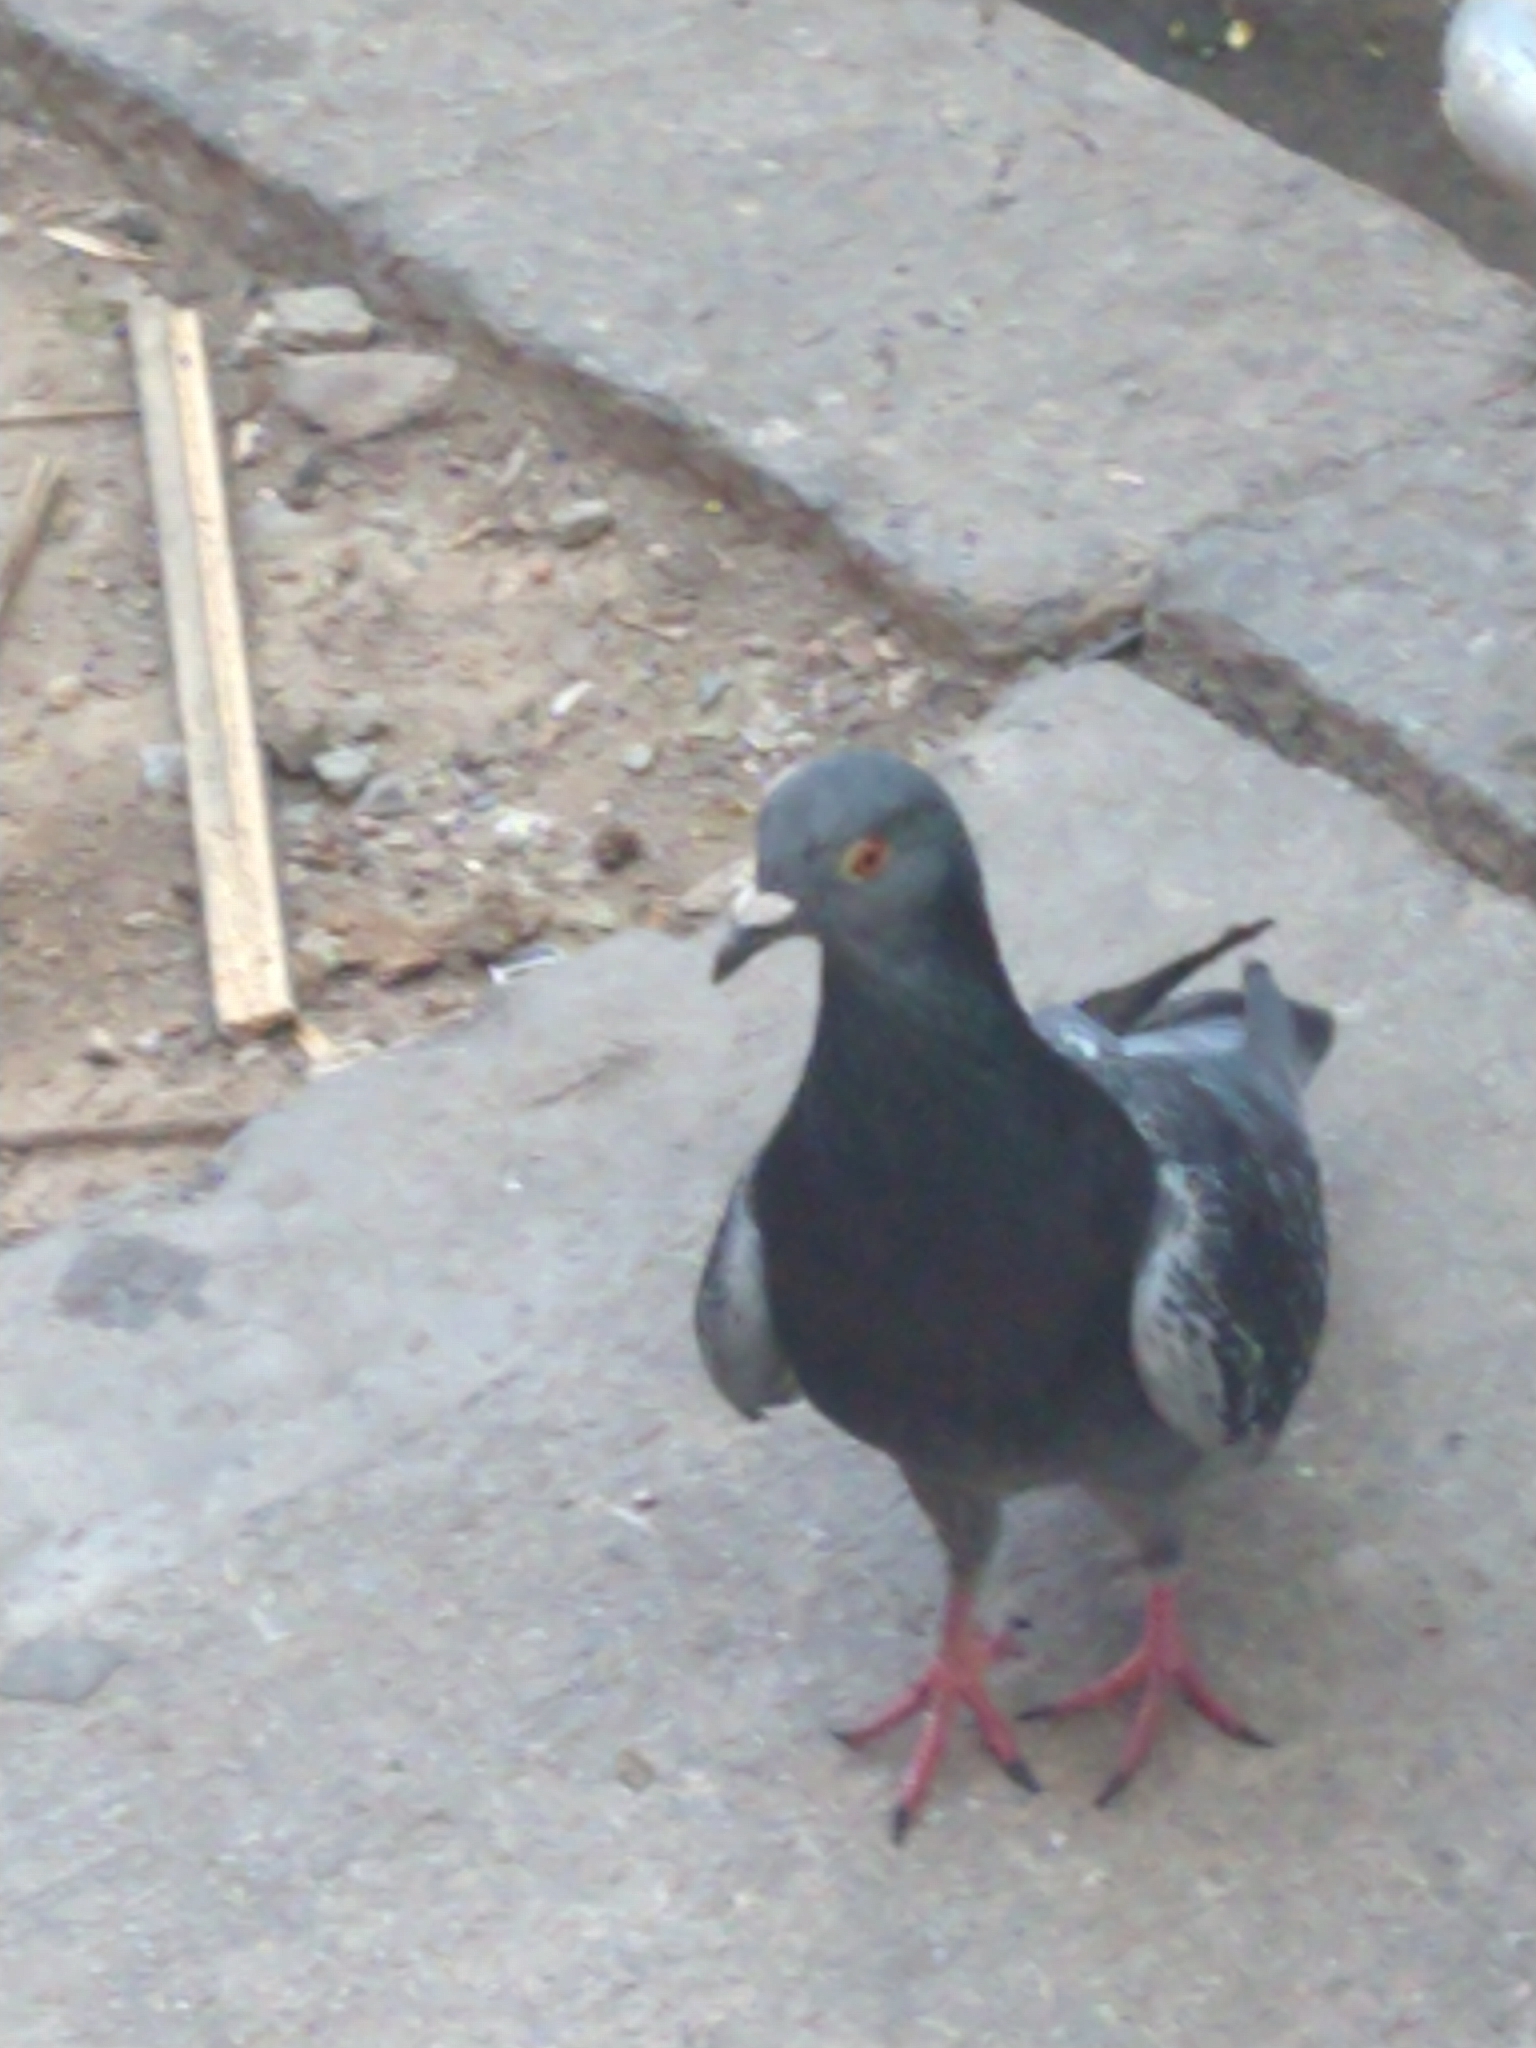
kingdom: Animalia
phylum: Chordata
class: Aves
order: Columbiformes
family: Columbidae
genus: Columba
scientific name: Columba livia
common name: Rock pigeon
